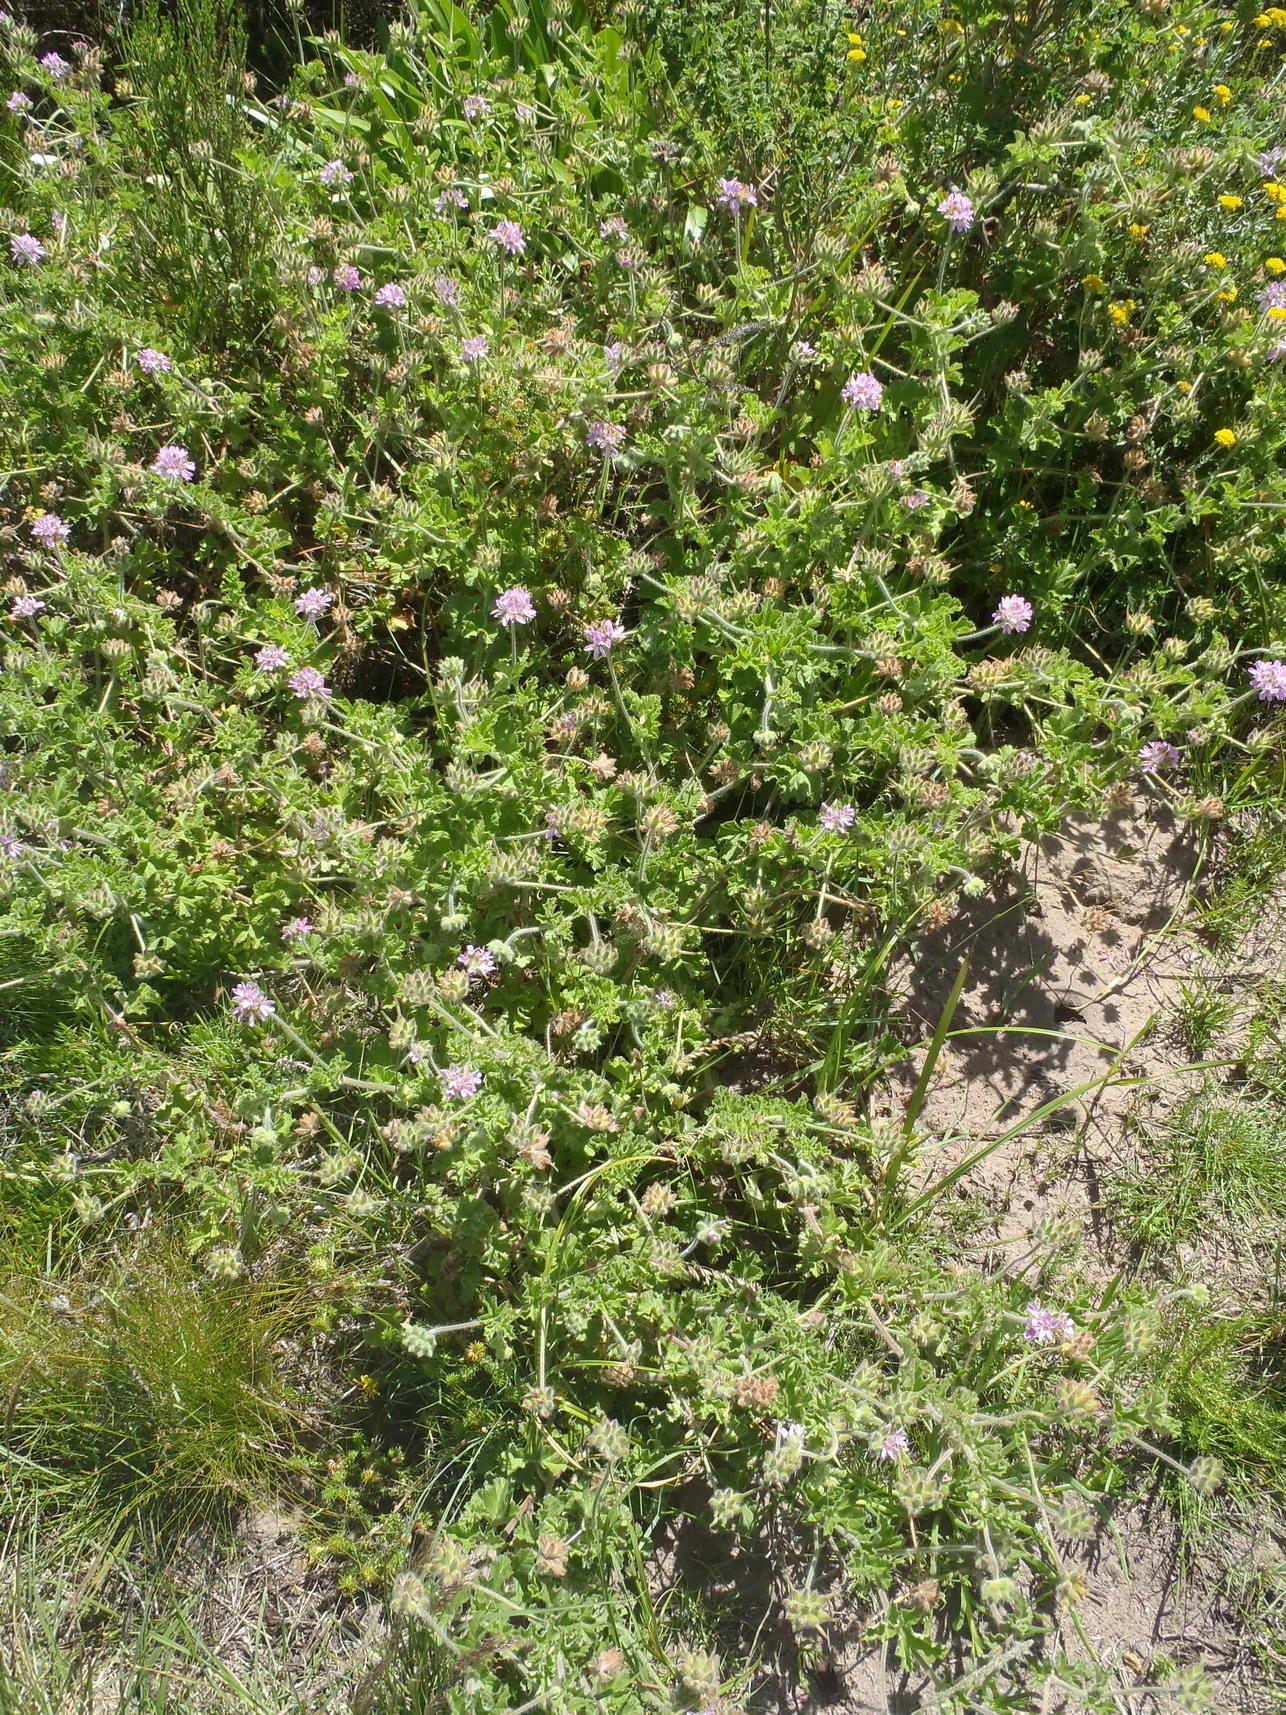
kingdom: Plantae
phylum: Tracheophyta
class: Magnoliopsida
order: Geraniales
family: Geraniaceae
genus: Pelargonium
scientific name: Pelargonium capitatum
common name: Rose scented geranium
